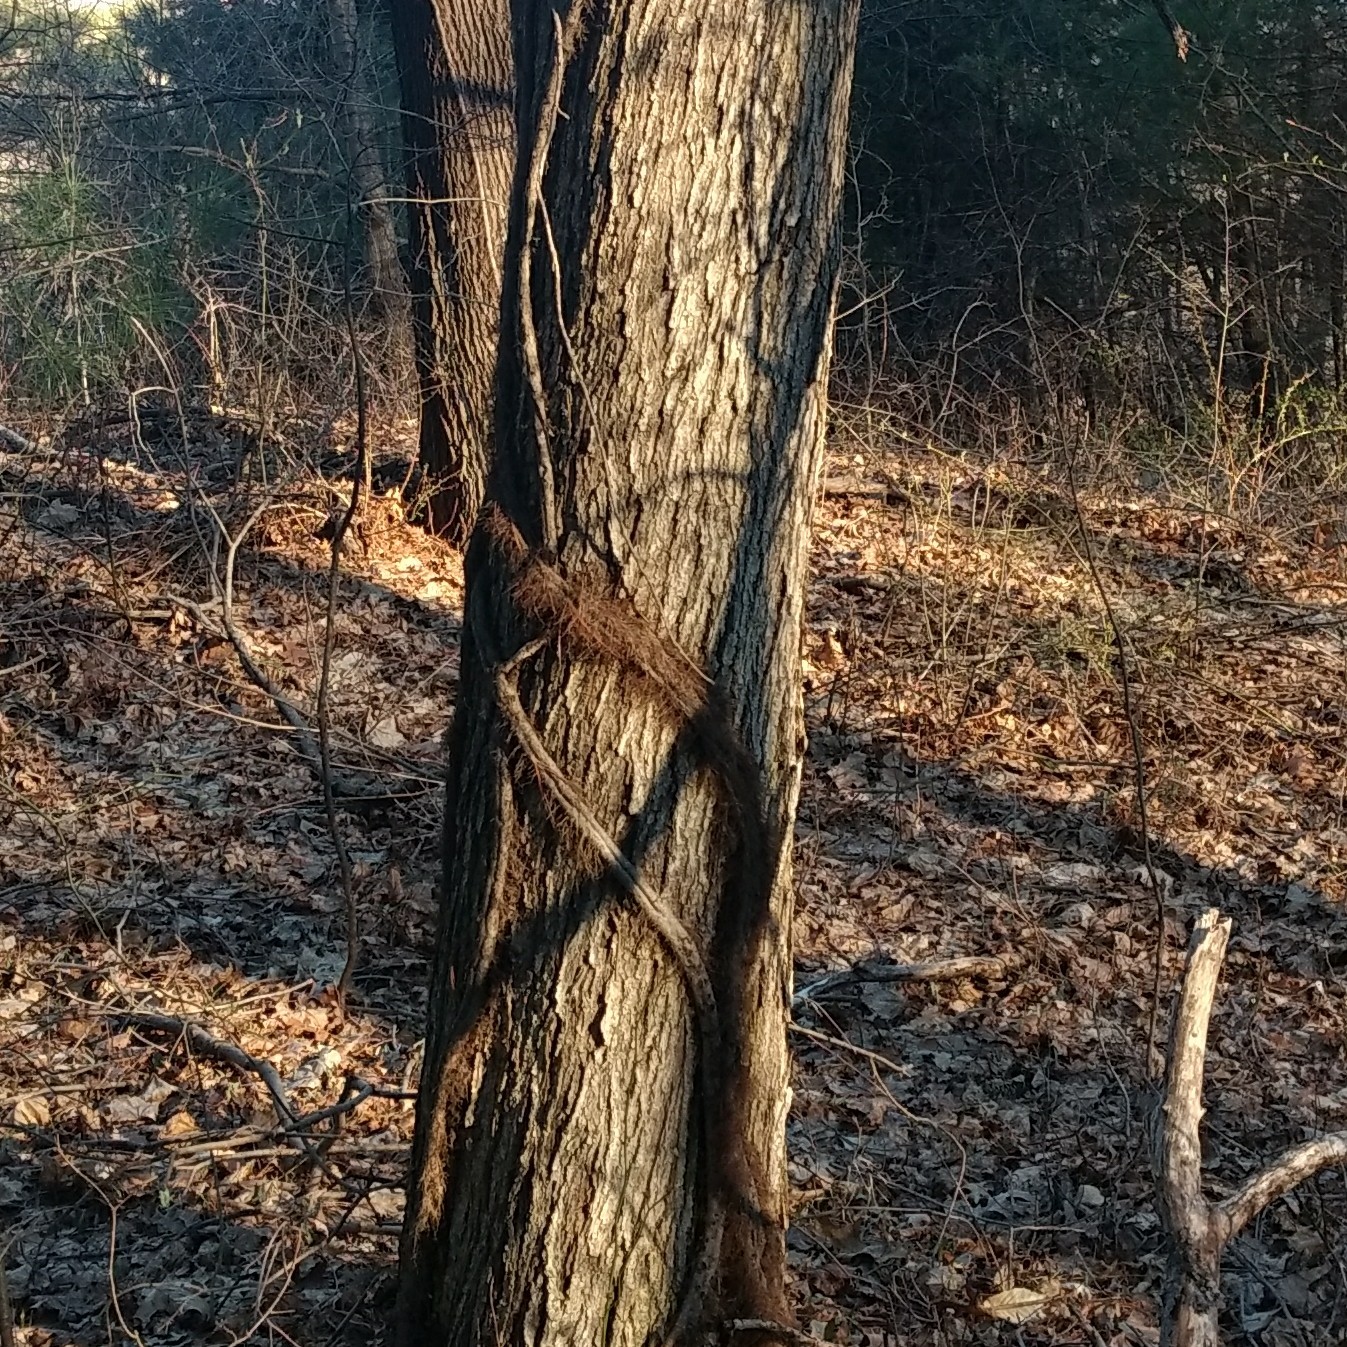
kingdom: Plantae
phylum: Tracheophyta
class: Magnoliopsida
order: Sapindales
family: Anacardiaceae
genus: Toxicodendron
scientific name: Toxicodendron radicans
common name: Poison ivy
